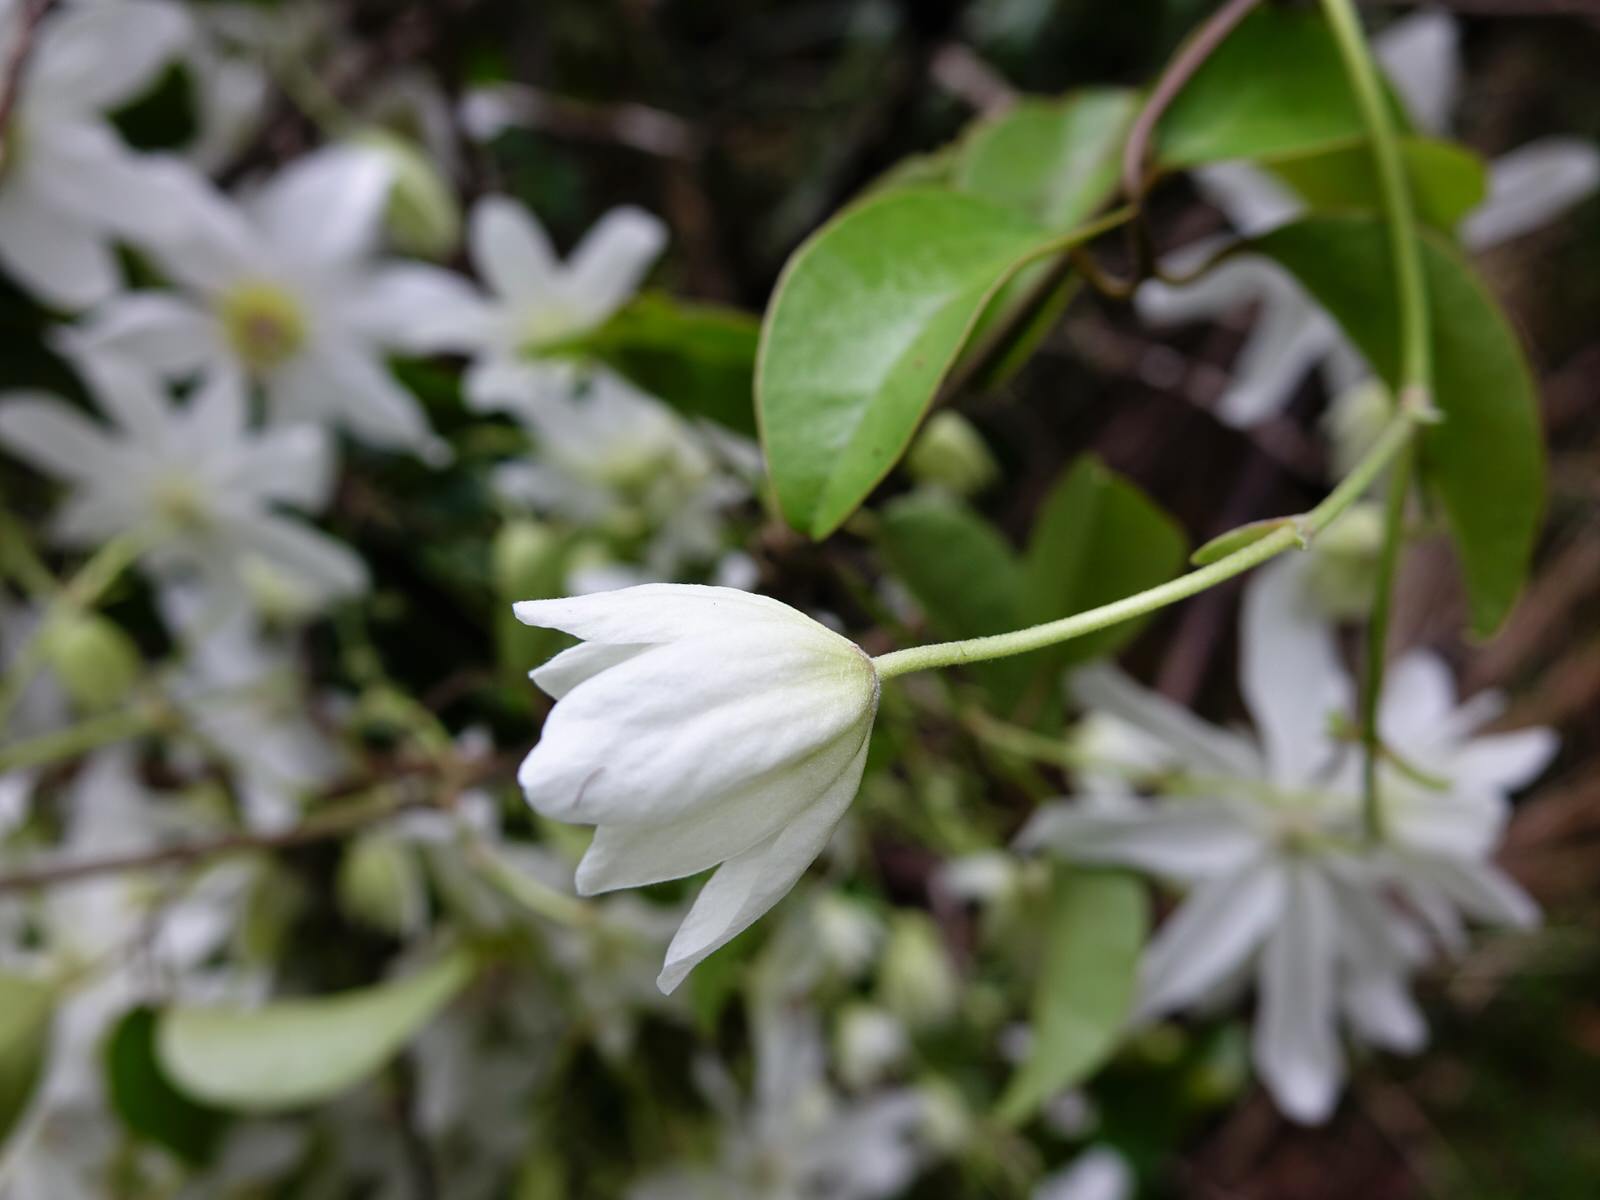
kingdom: Plantae
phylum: Tracheophyta
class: Magnoliopsida
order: Ranunculales
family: Ranunculaceae
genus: Clematis
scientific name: Clematis paniculata
